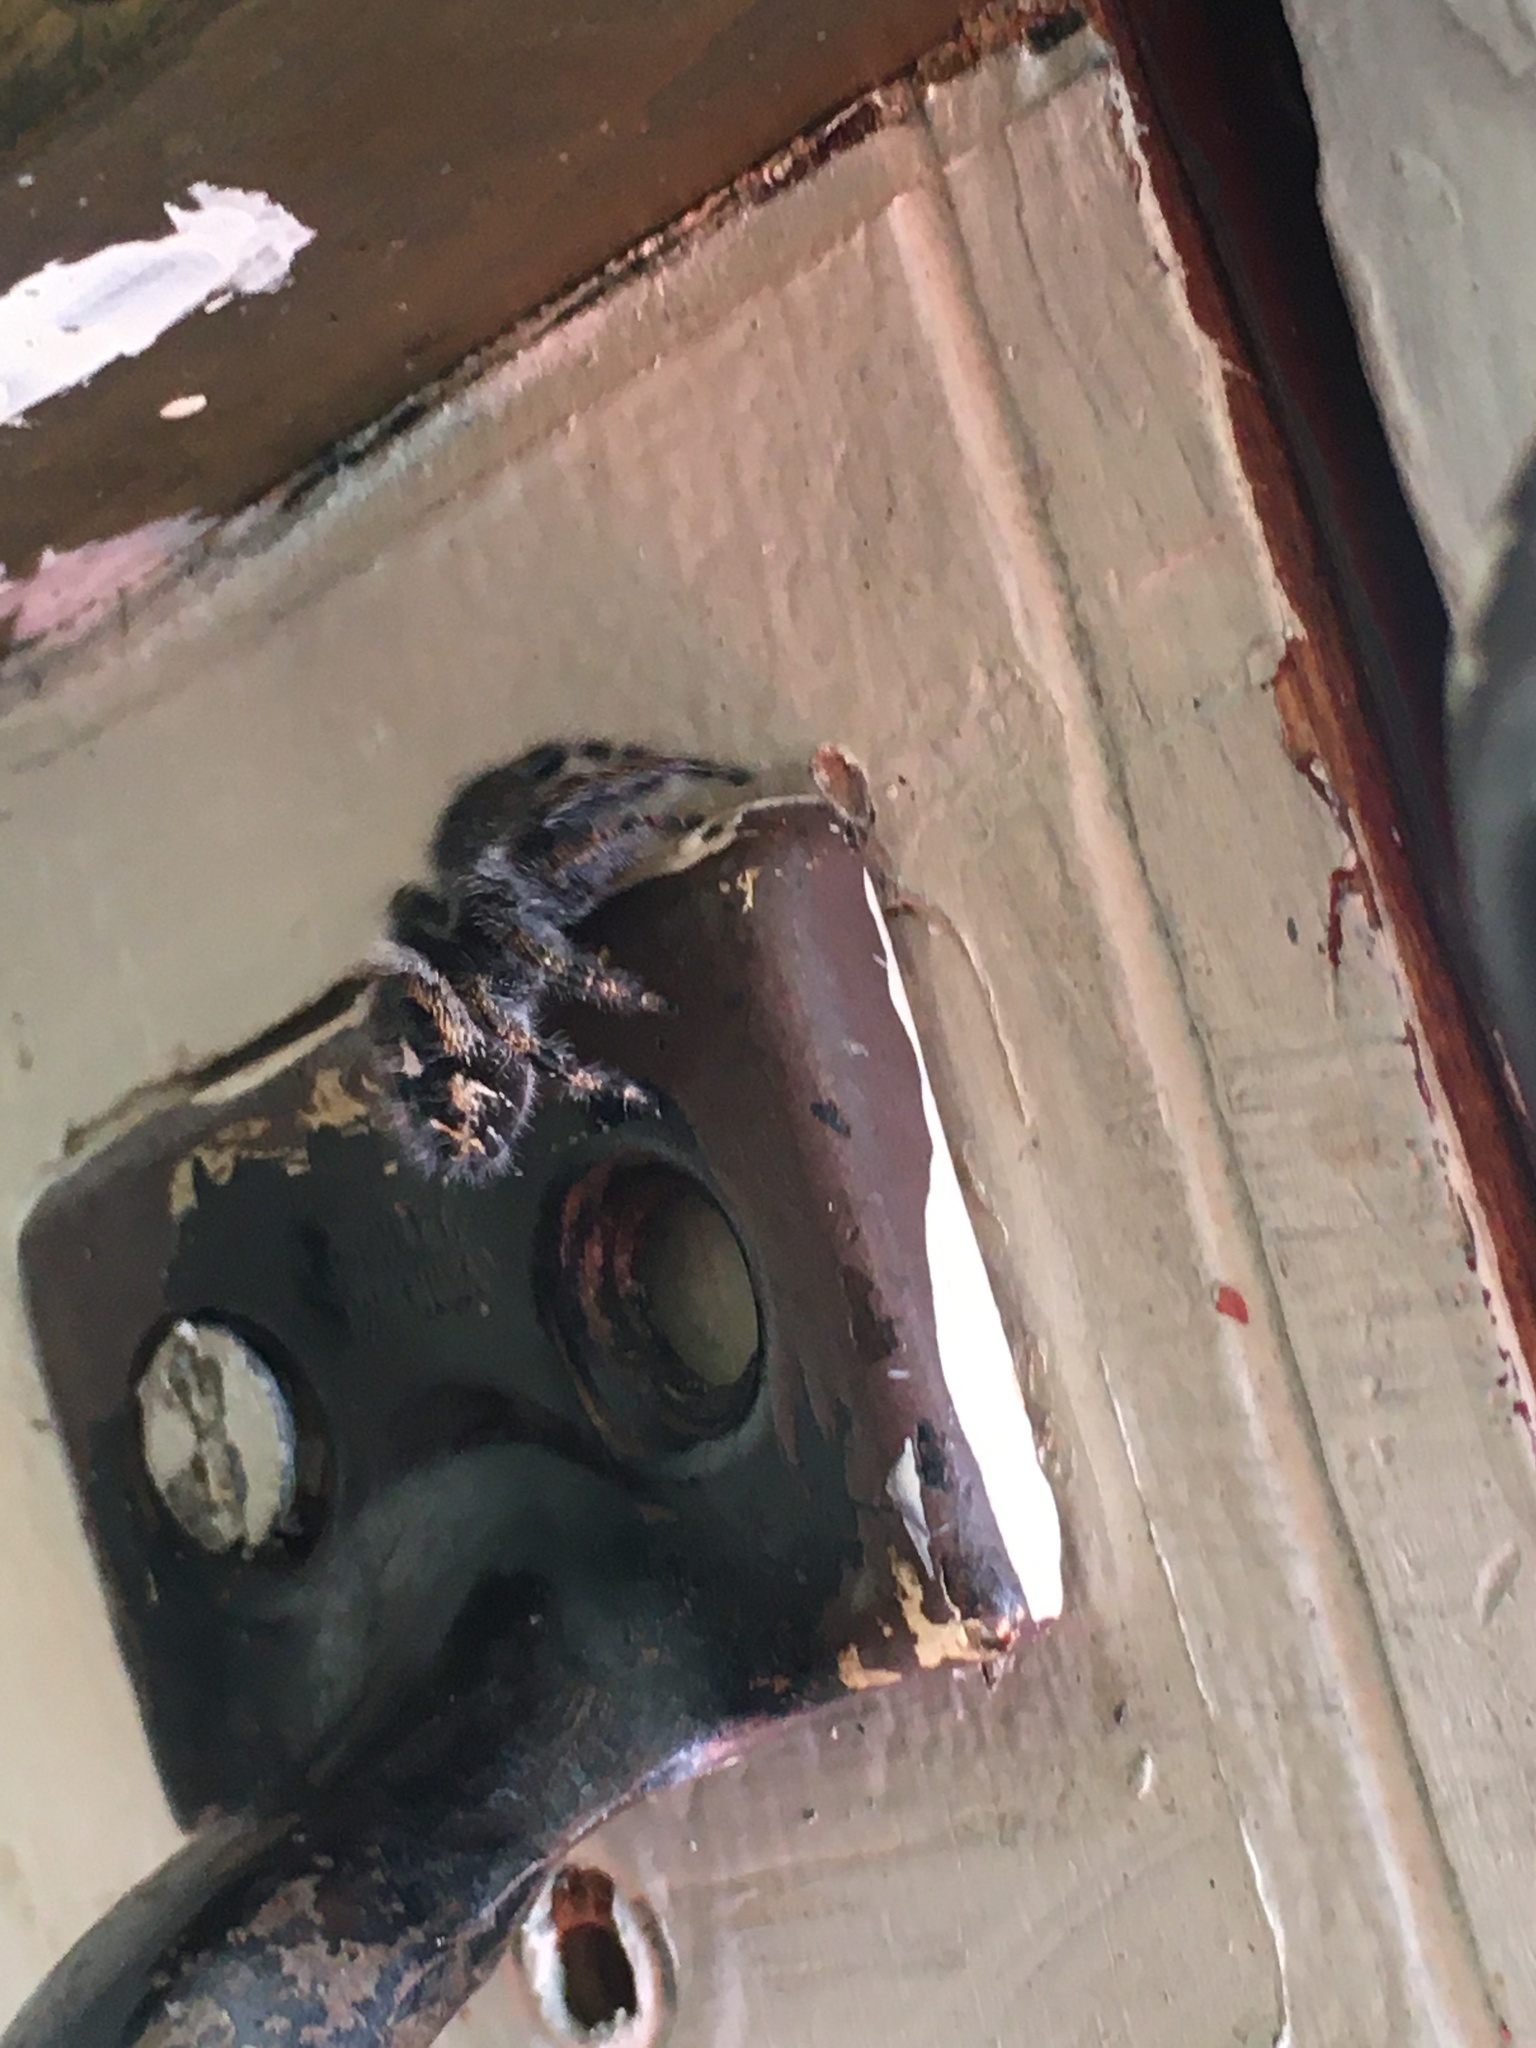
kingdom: Animalia
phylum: Arthropoda
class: Arachnida
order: Araneae
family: Salticidae
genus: Phidippus
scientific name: Phidippus audax
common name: Bold jumper
